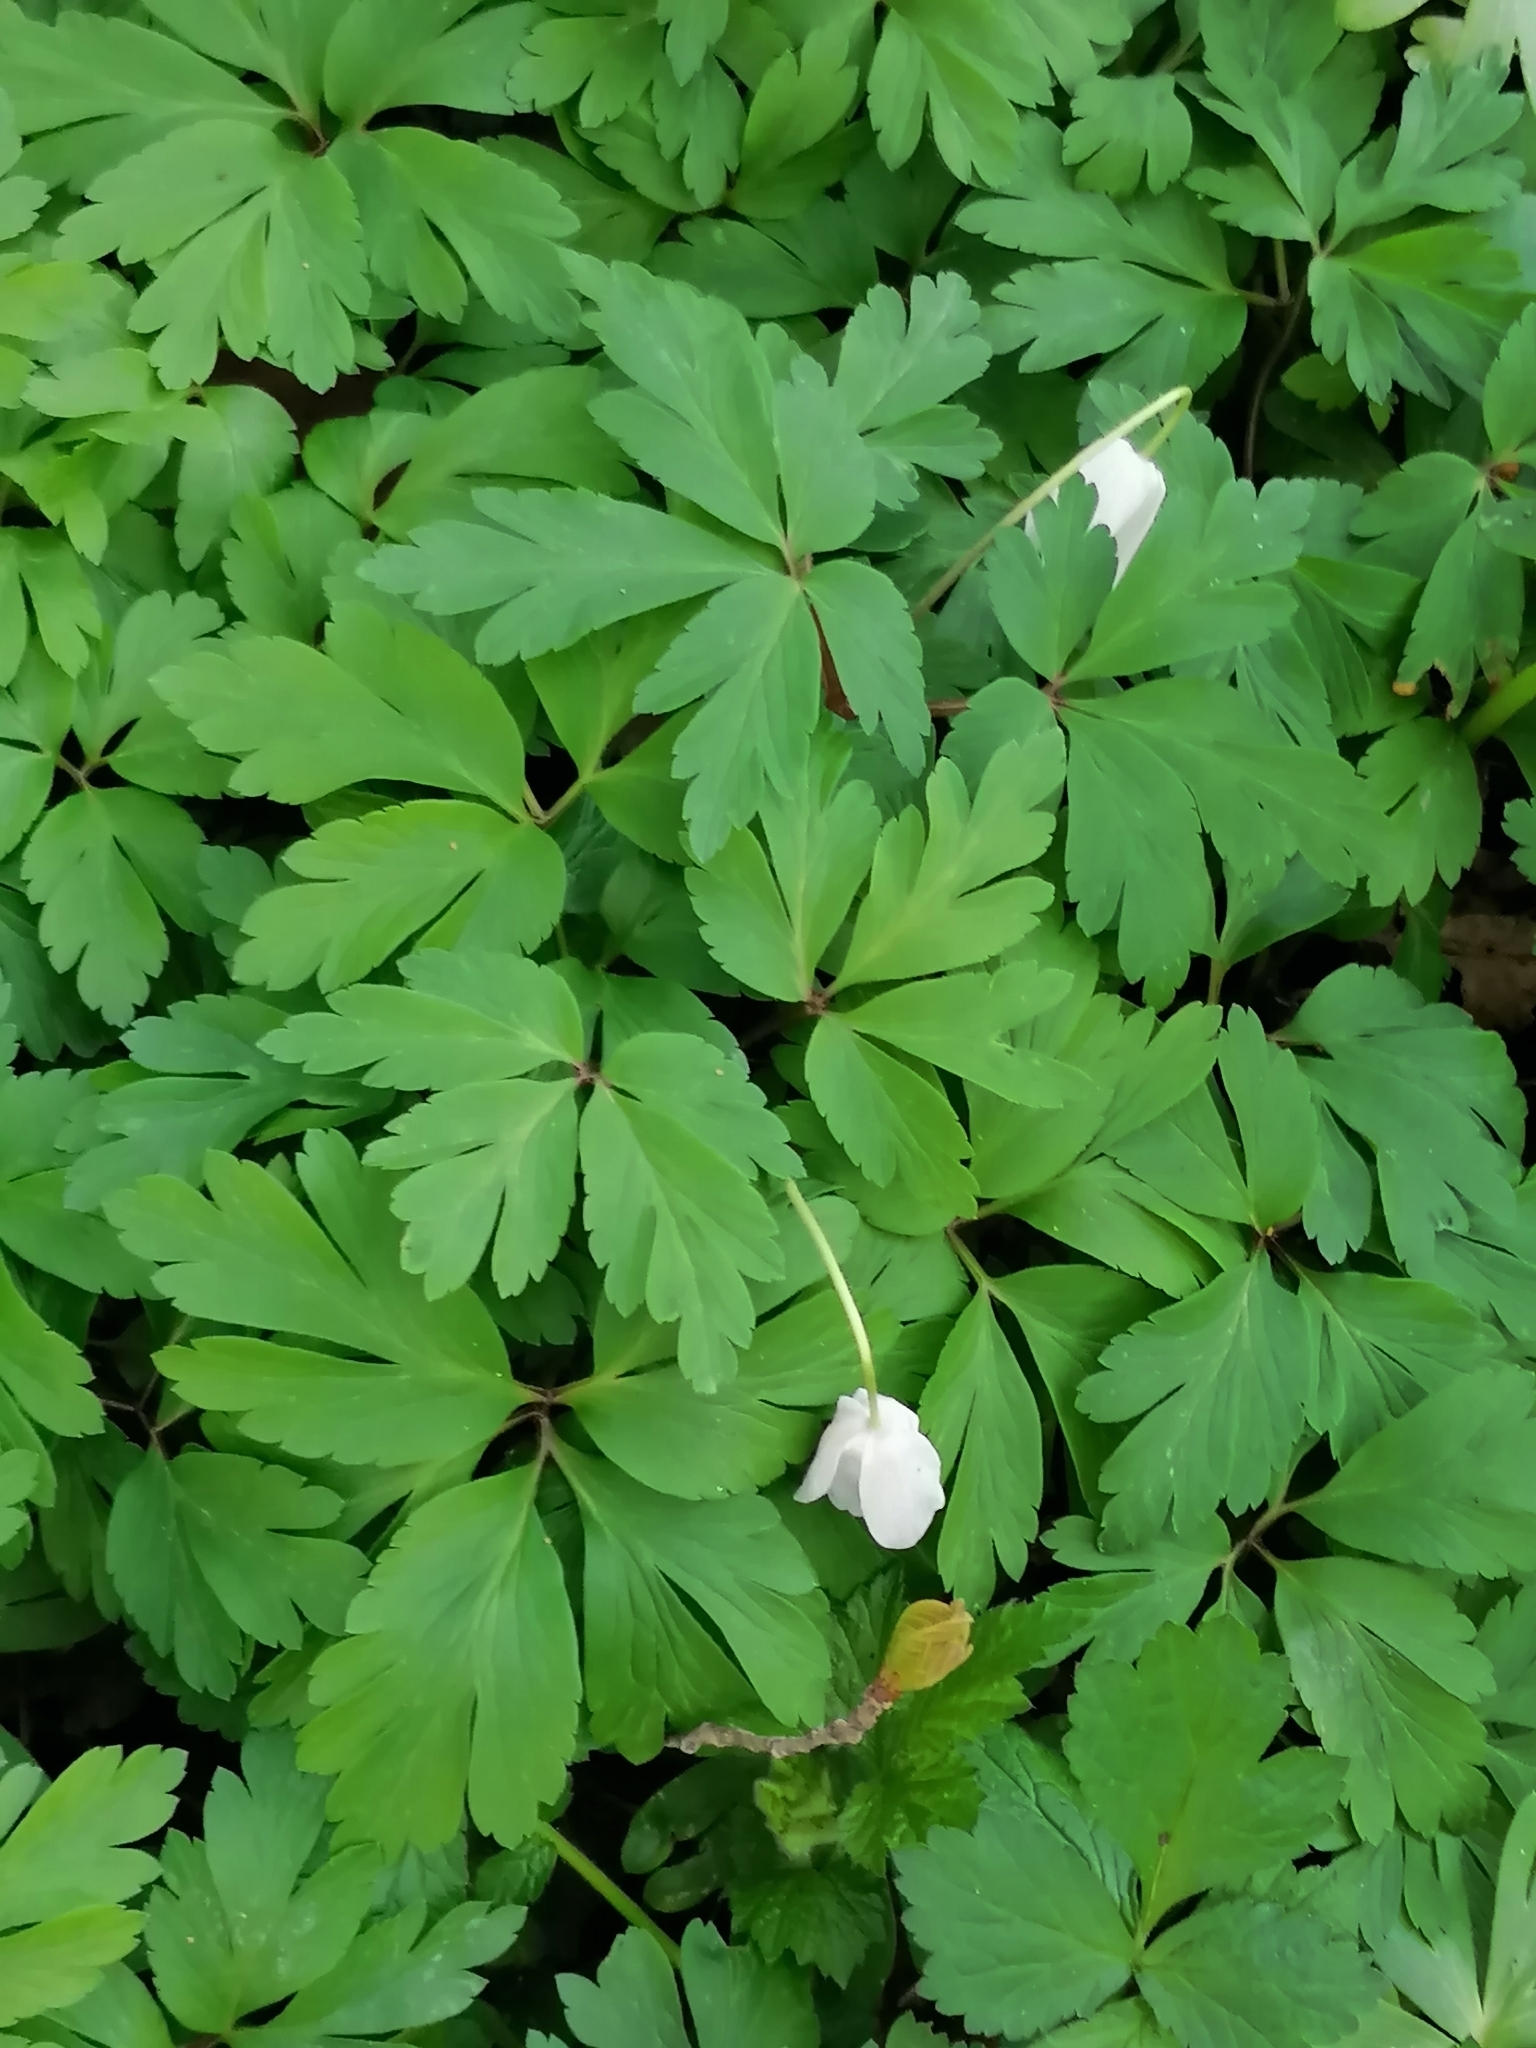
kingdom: Plantae
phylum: Tracheophyta
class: Magnoliopsida
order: Ranunculales
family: Ranunculaceae
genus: Anemone
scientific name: Anemone nemorosa
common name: Wood anemone
